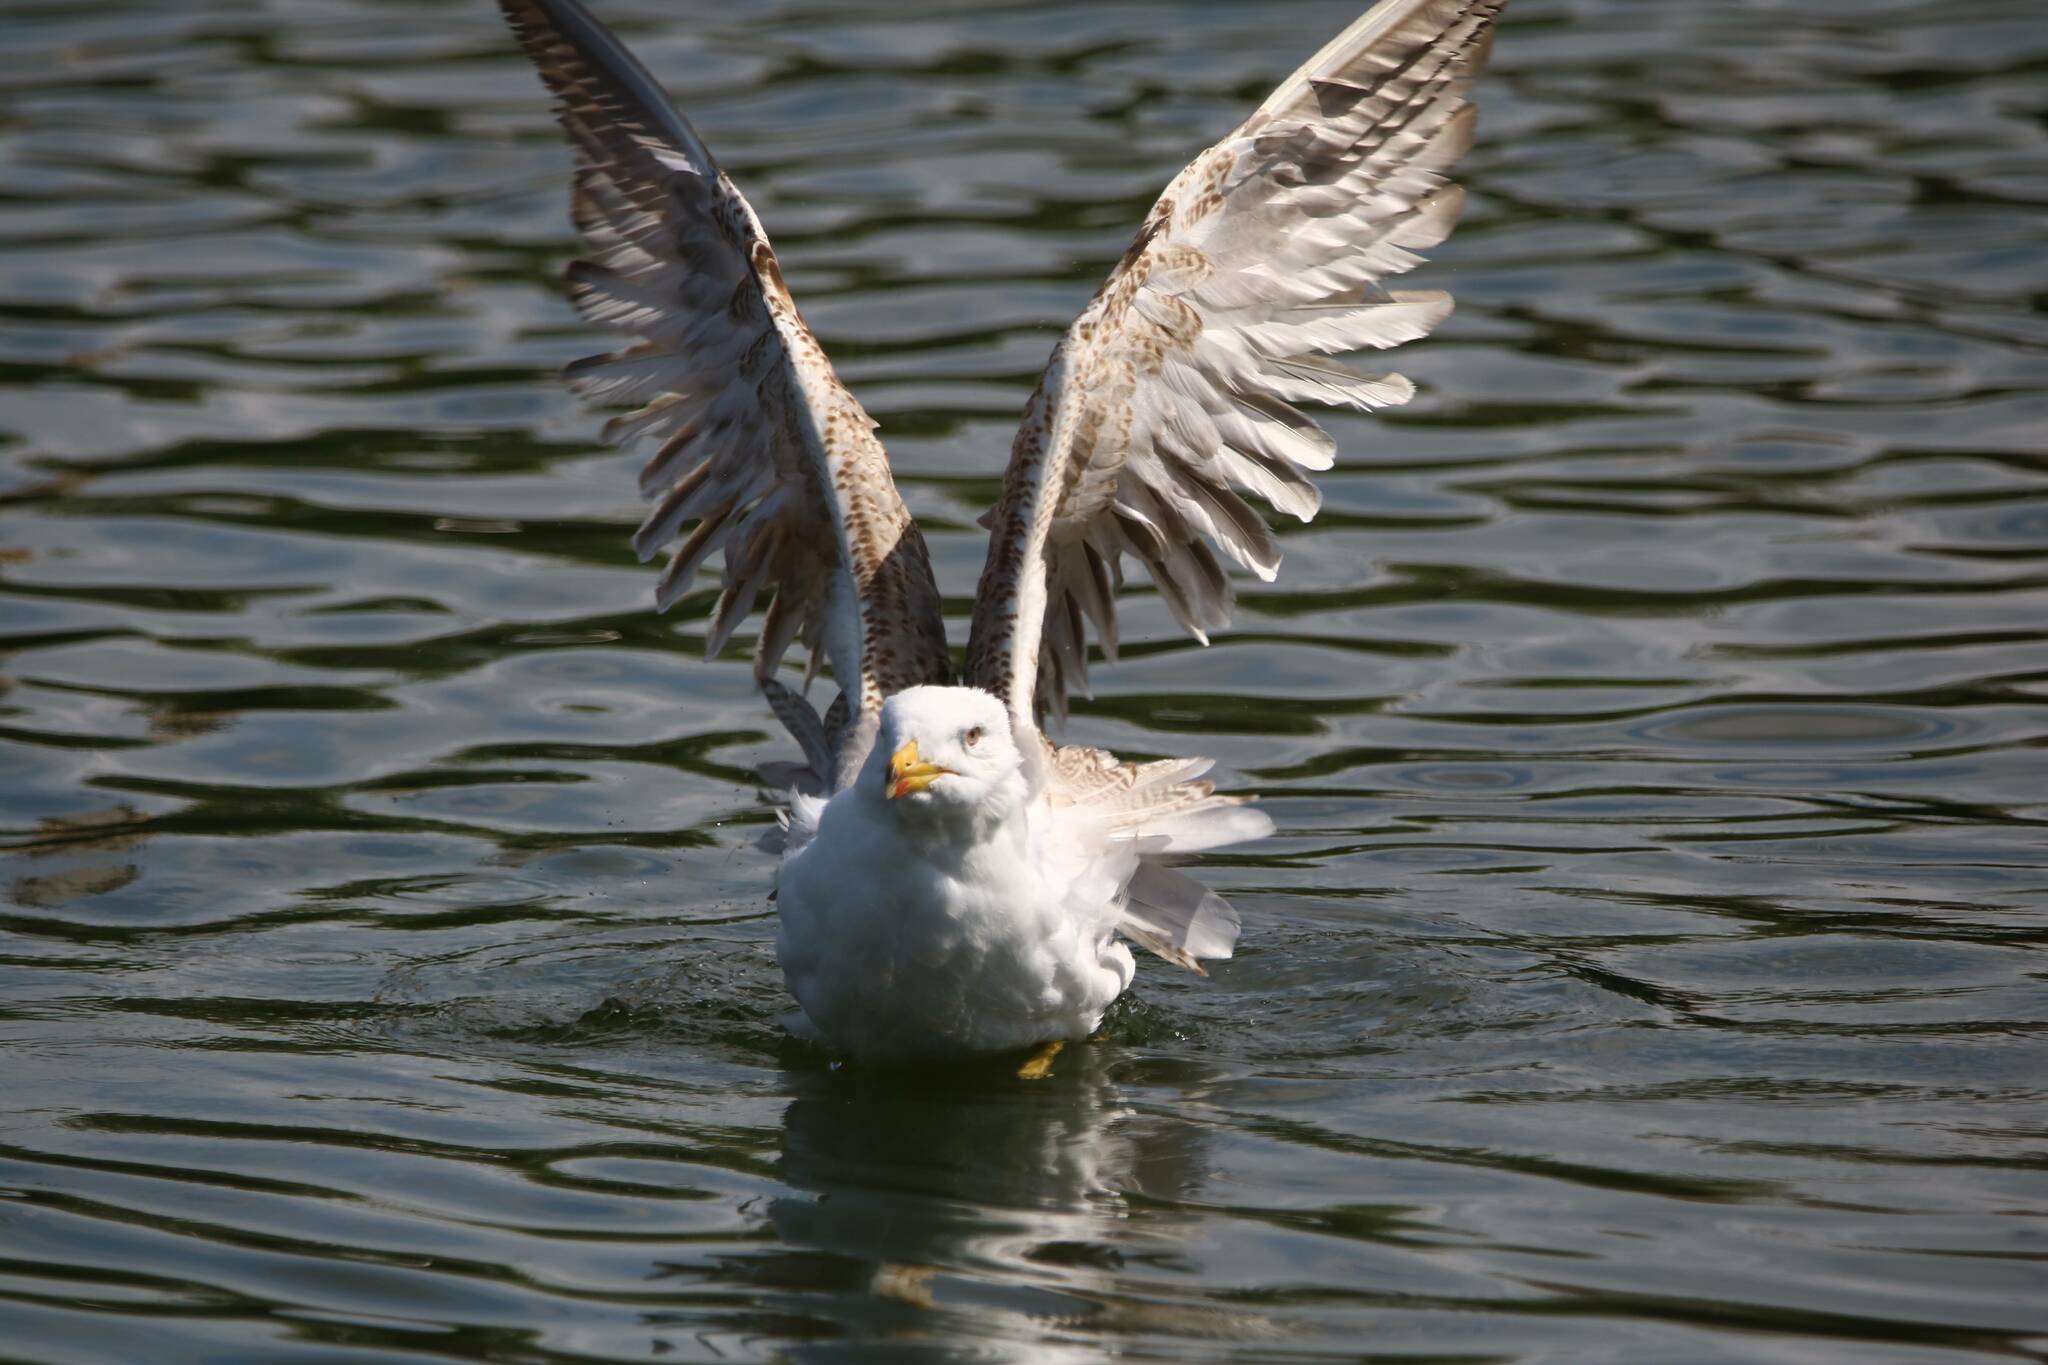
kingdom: Animalia
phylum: Chordata
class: Aves
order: Charadriiformes
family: Laridae
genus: Larus
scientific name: Larus michahellis
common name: Yellow-legged gull
